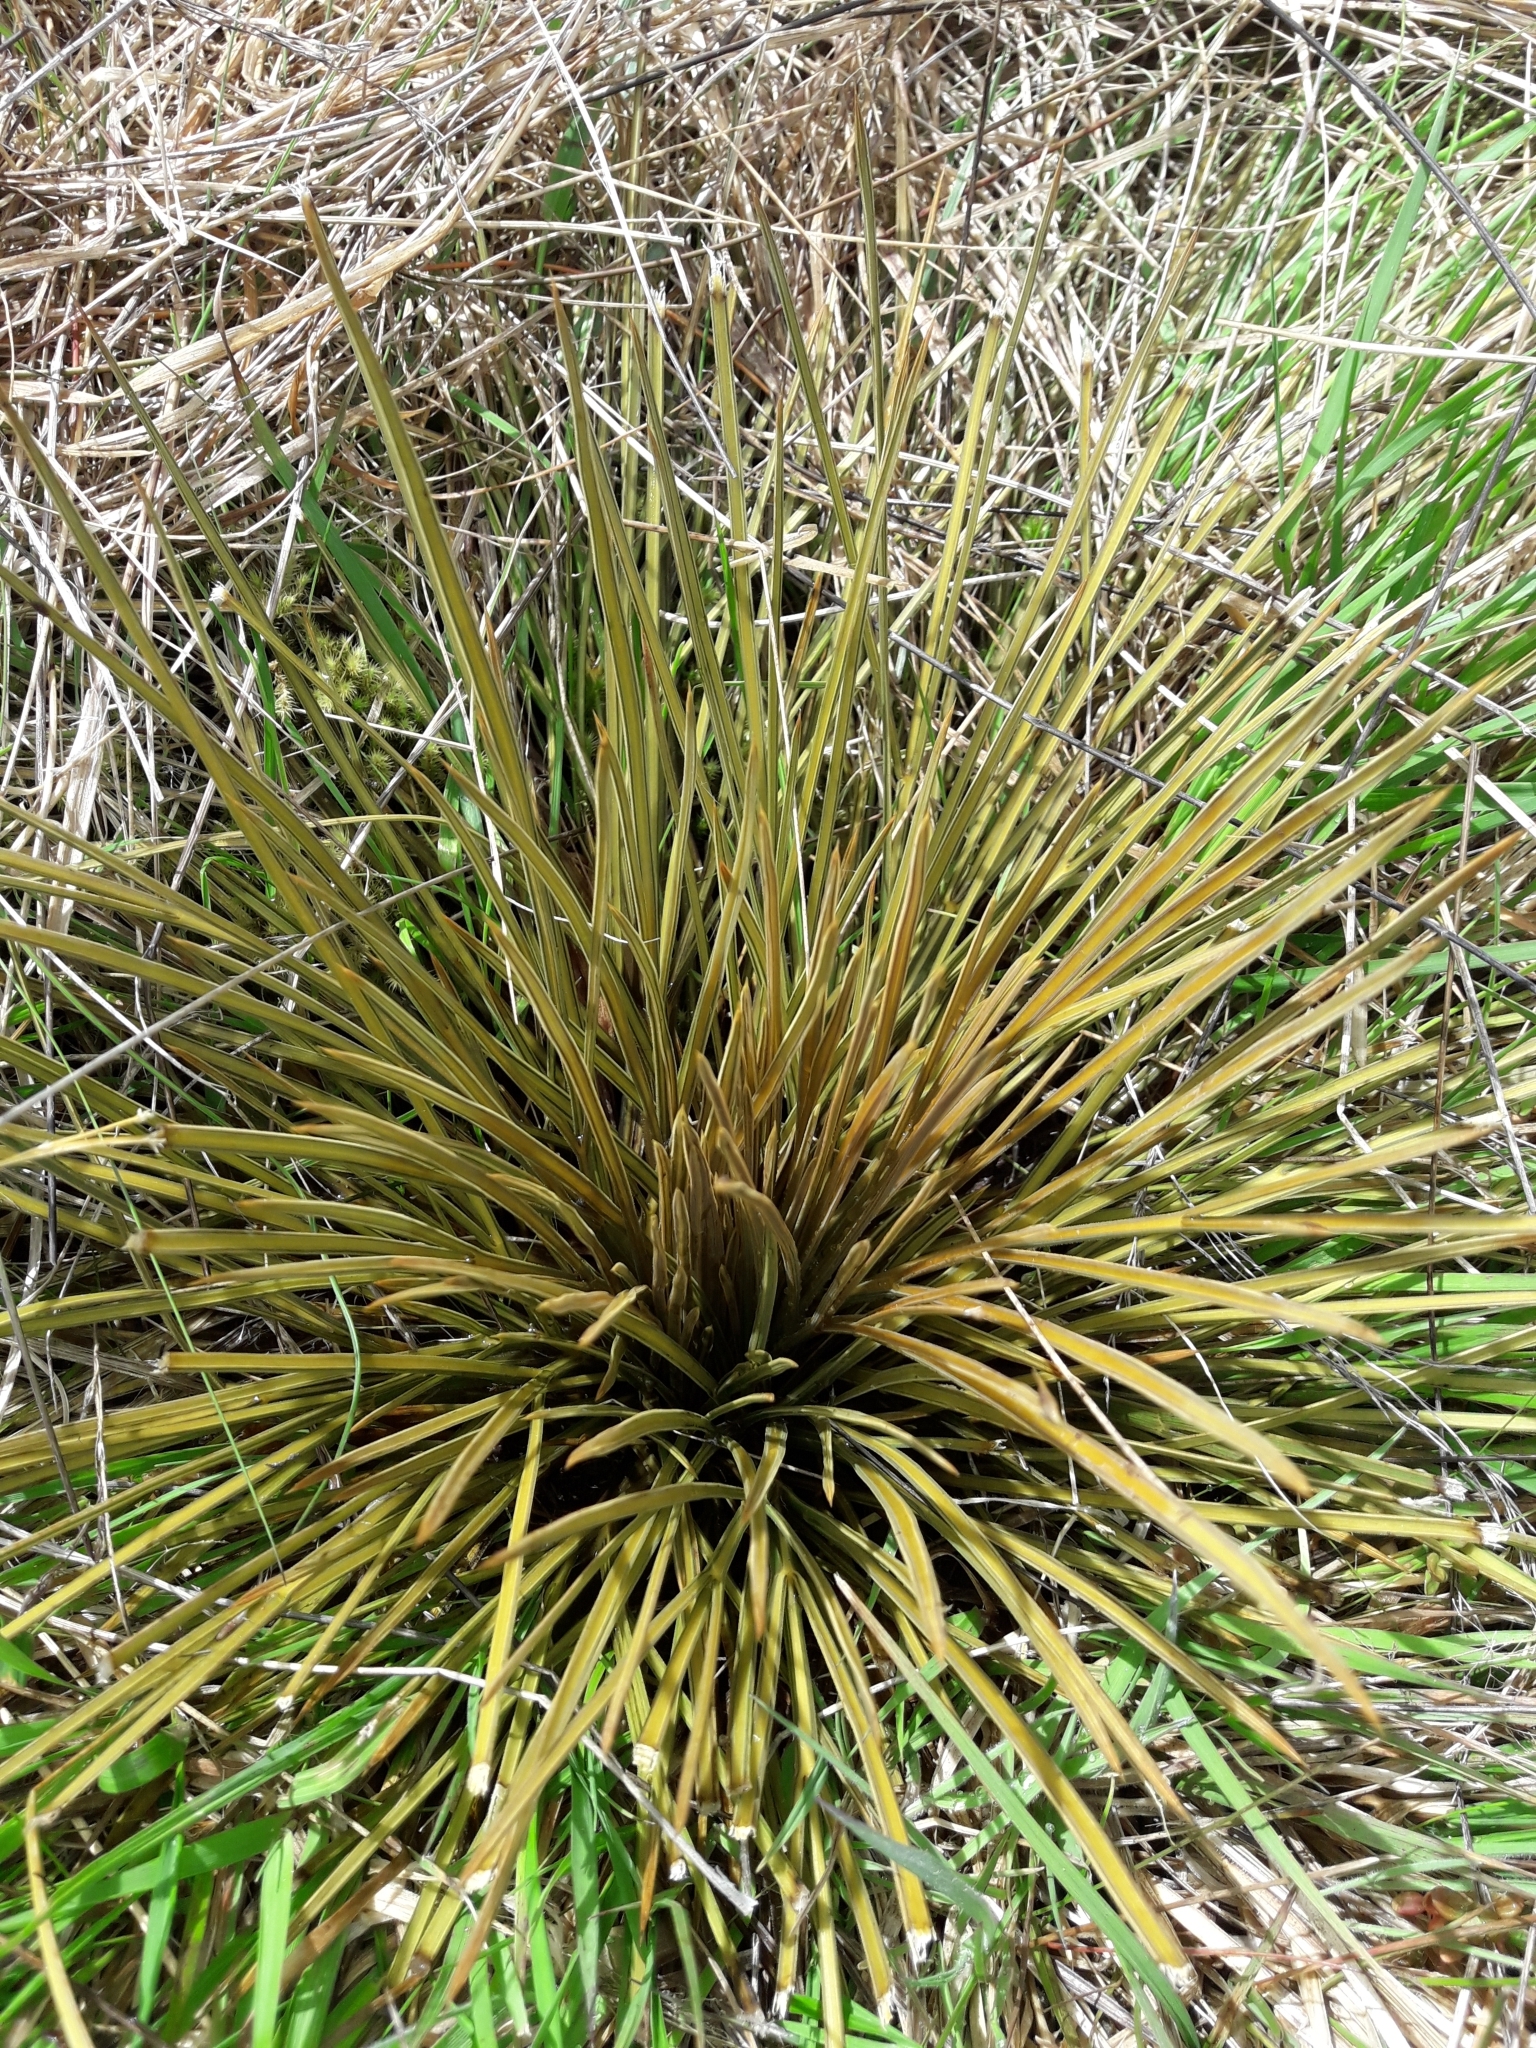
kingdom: Plantae
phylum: Tracheophyta
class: Magnoliopsida
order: Apiales
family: Apiaceae
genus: Aciphylla
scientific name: Aciphylla subflabellata
